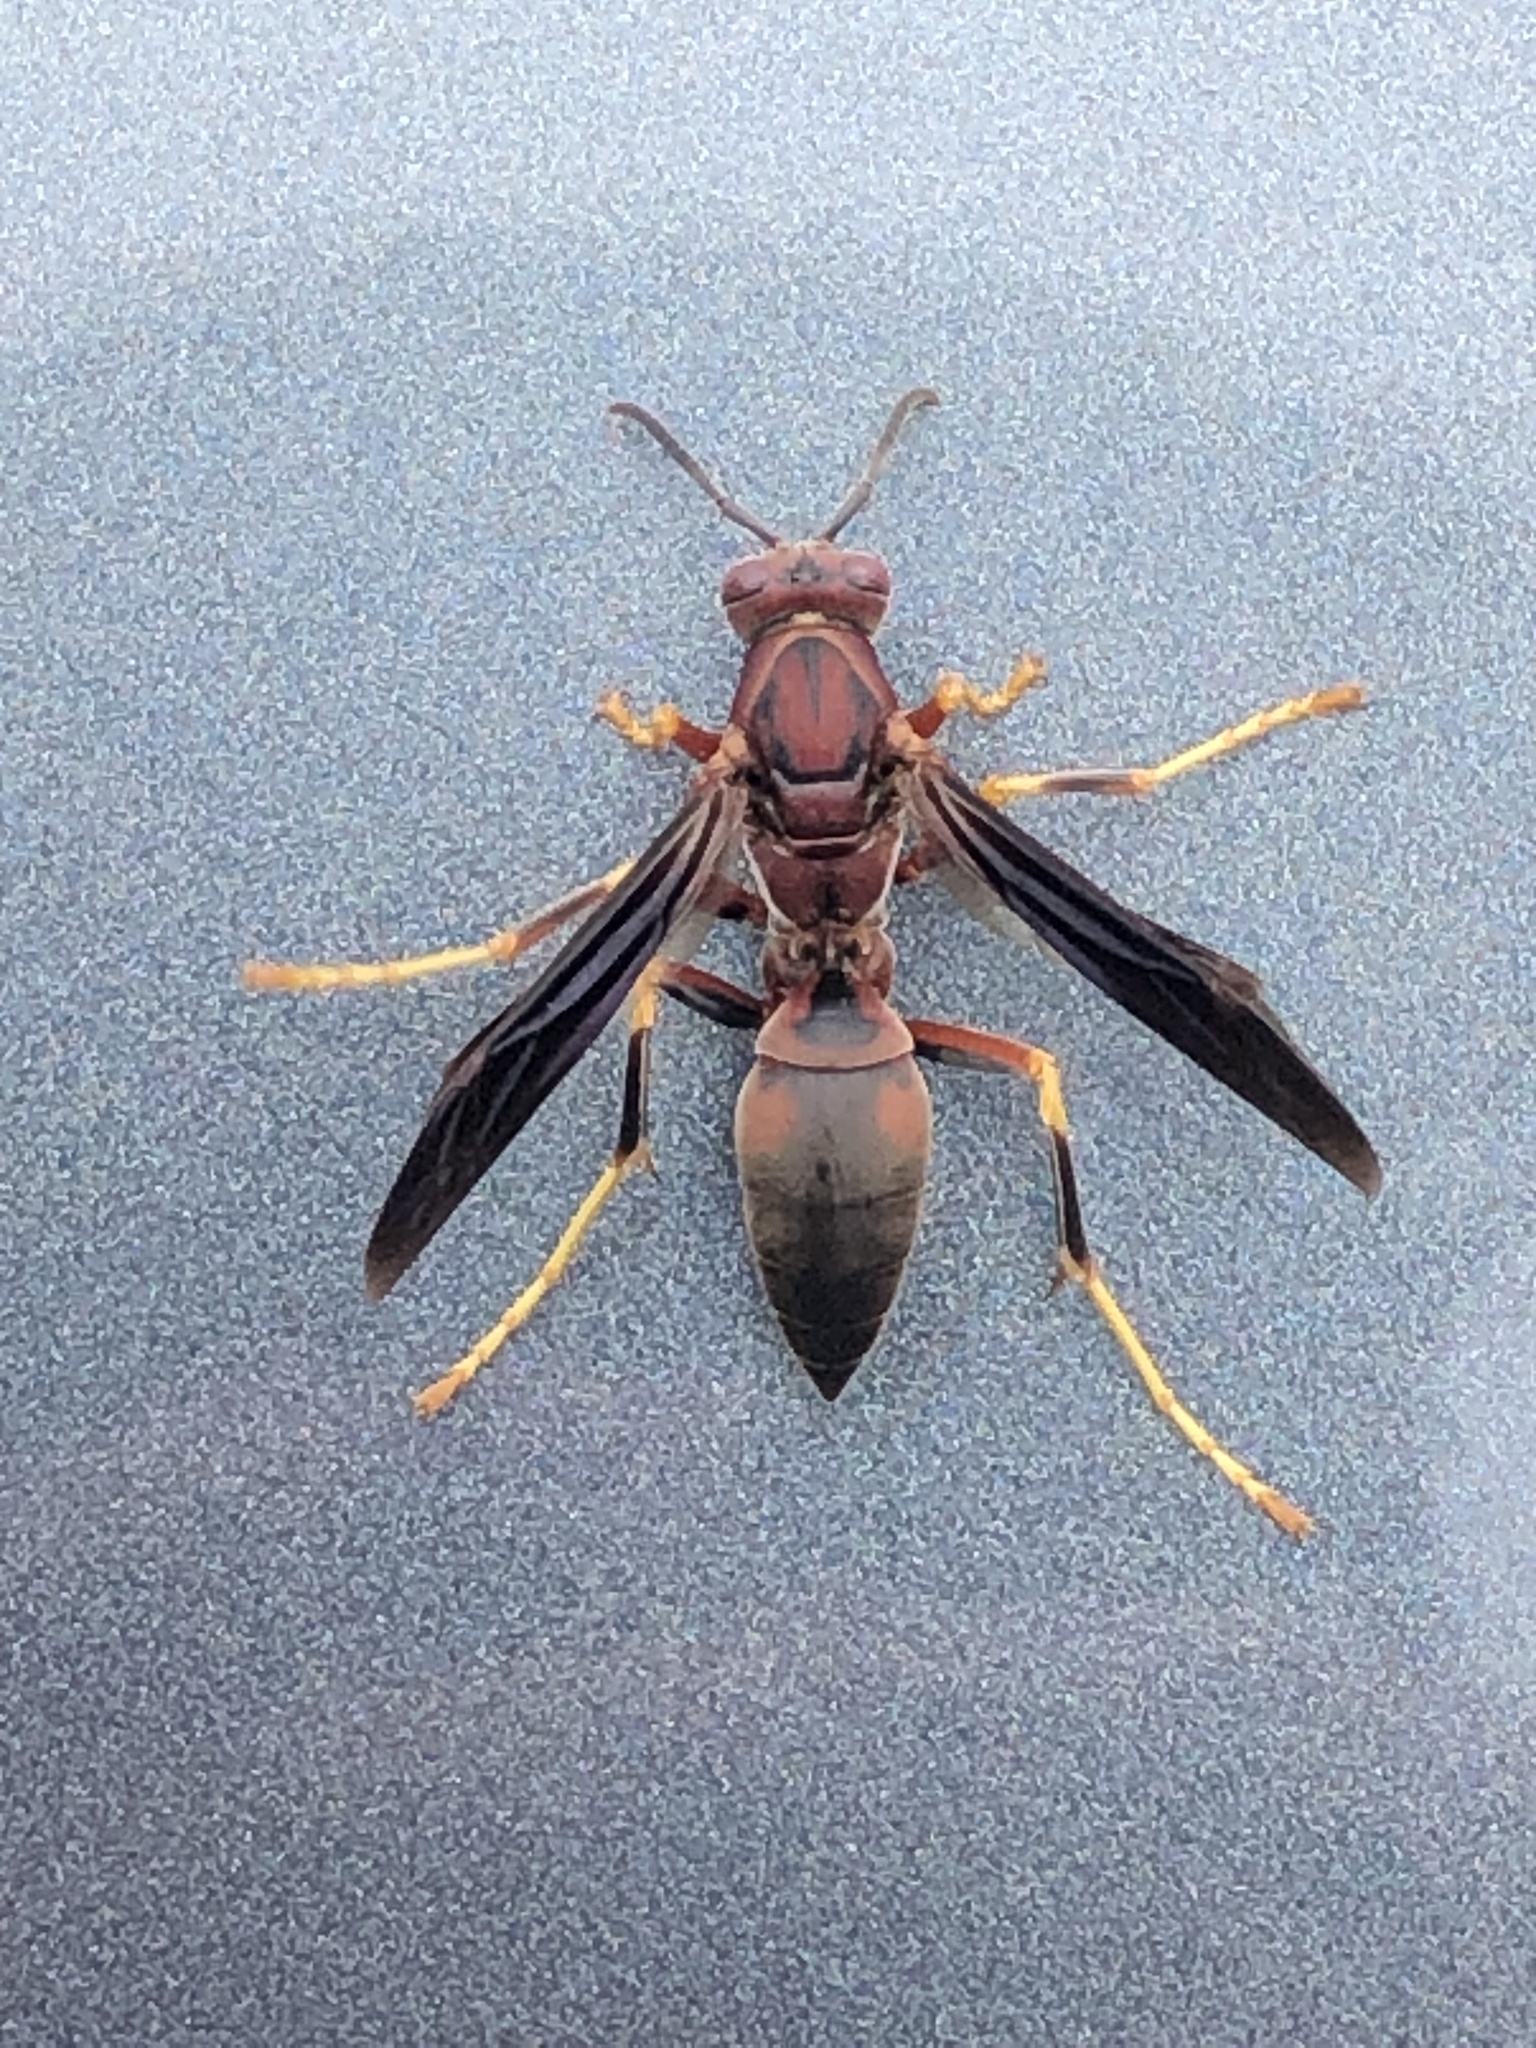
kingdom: Animalia
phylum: Arthropoda
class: Insecta
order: Hymenoptera
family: Eumenidae
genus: Polistes
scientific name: Polistes metricus
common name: Metric paper wasp
